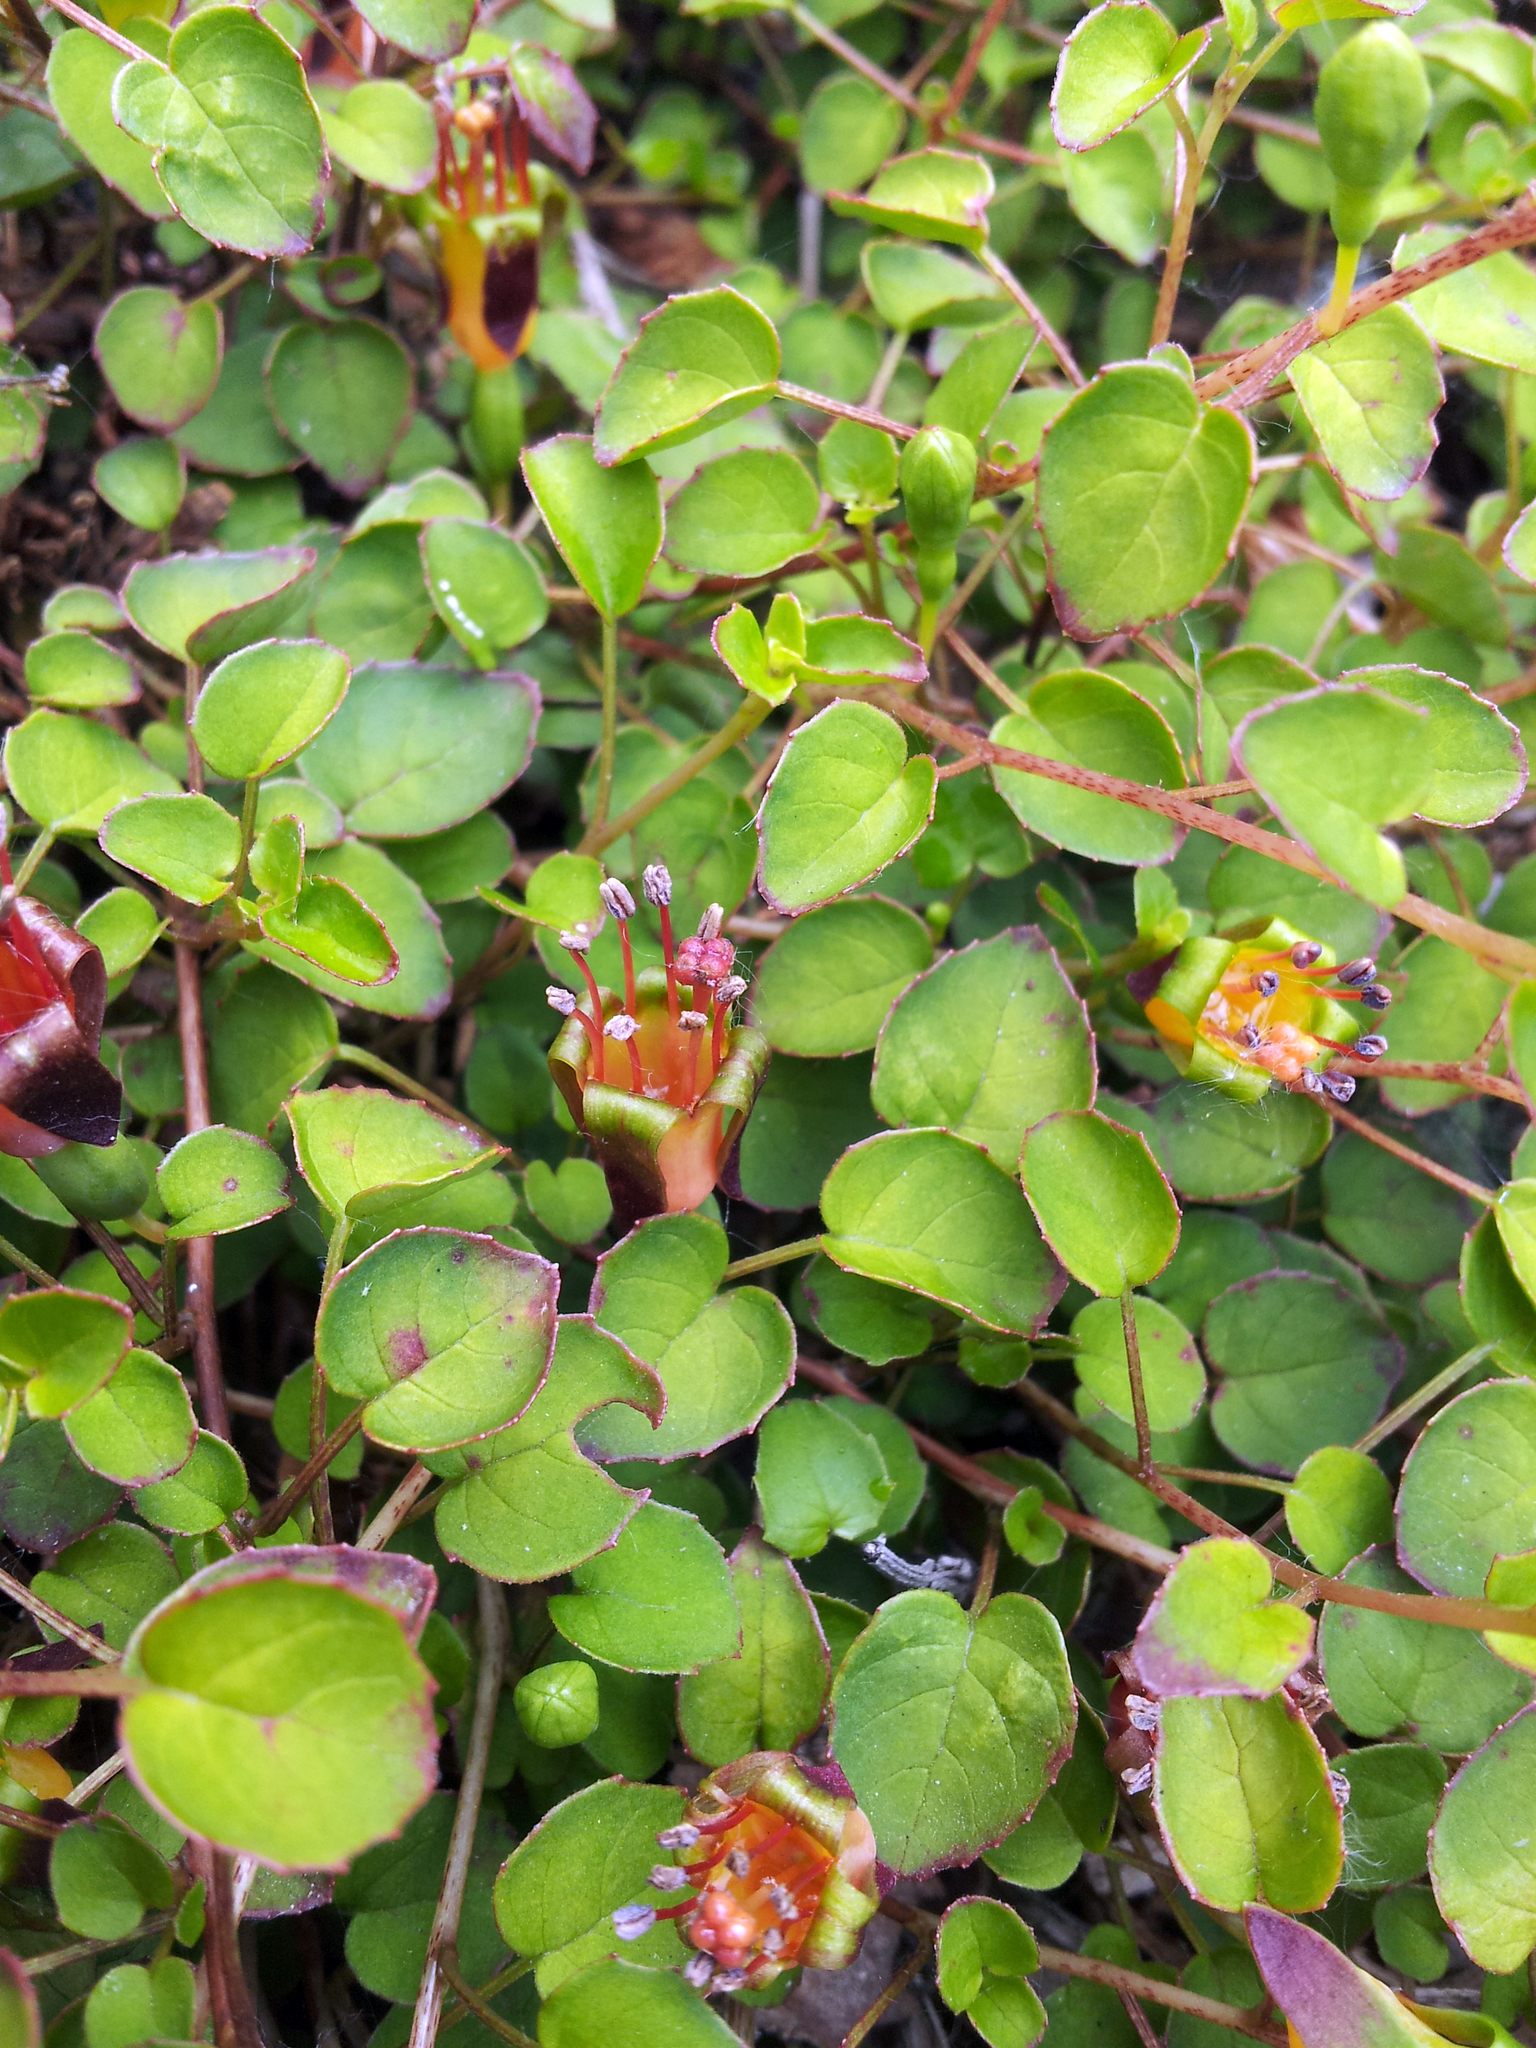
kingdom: Plantae
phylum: Tracheophyta
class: Magnoliopsida
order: Myrtales
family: Onagraceae
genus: Fuchsia
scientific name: Fuchsia procumbens
